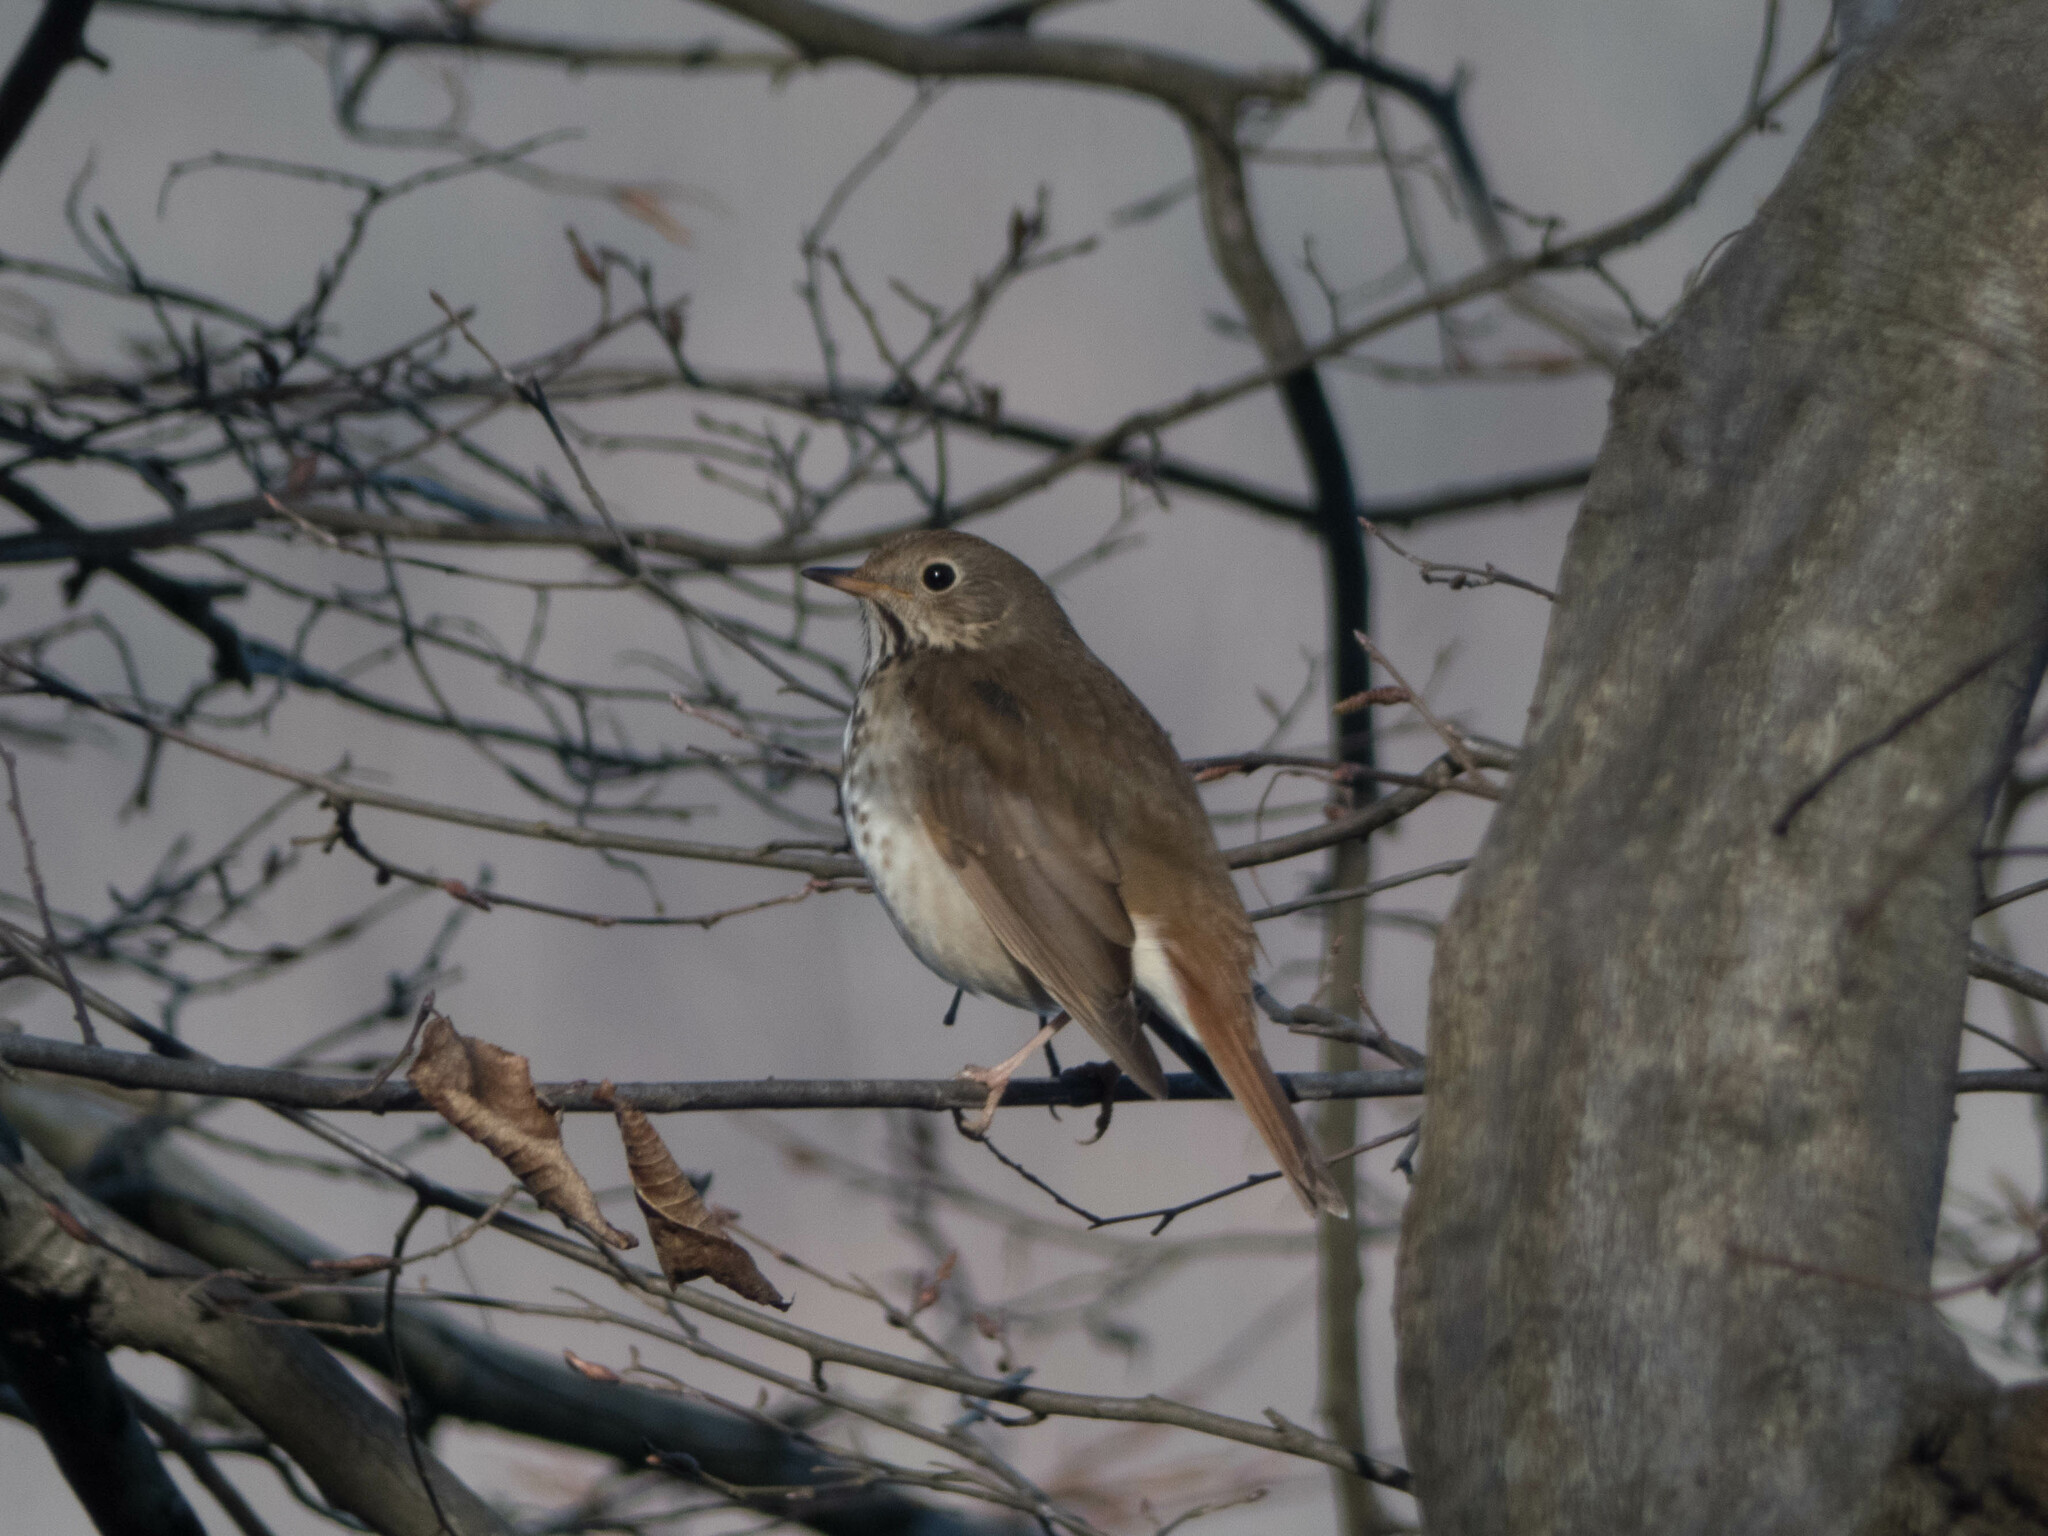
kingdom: Animalia
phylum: Chordata
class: Aves
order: Passeriformes
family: Turdidae
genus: Catharus
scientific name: Catharus guttatus
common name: Hermit thrush
